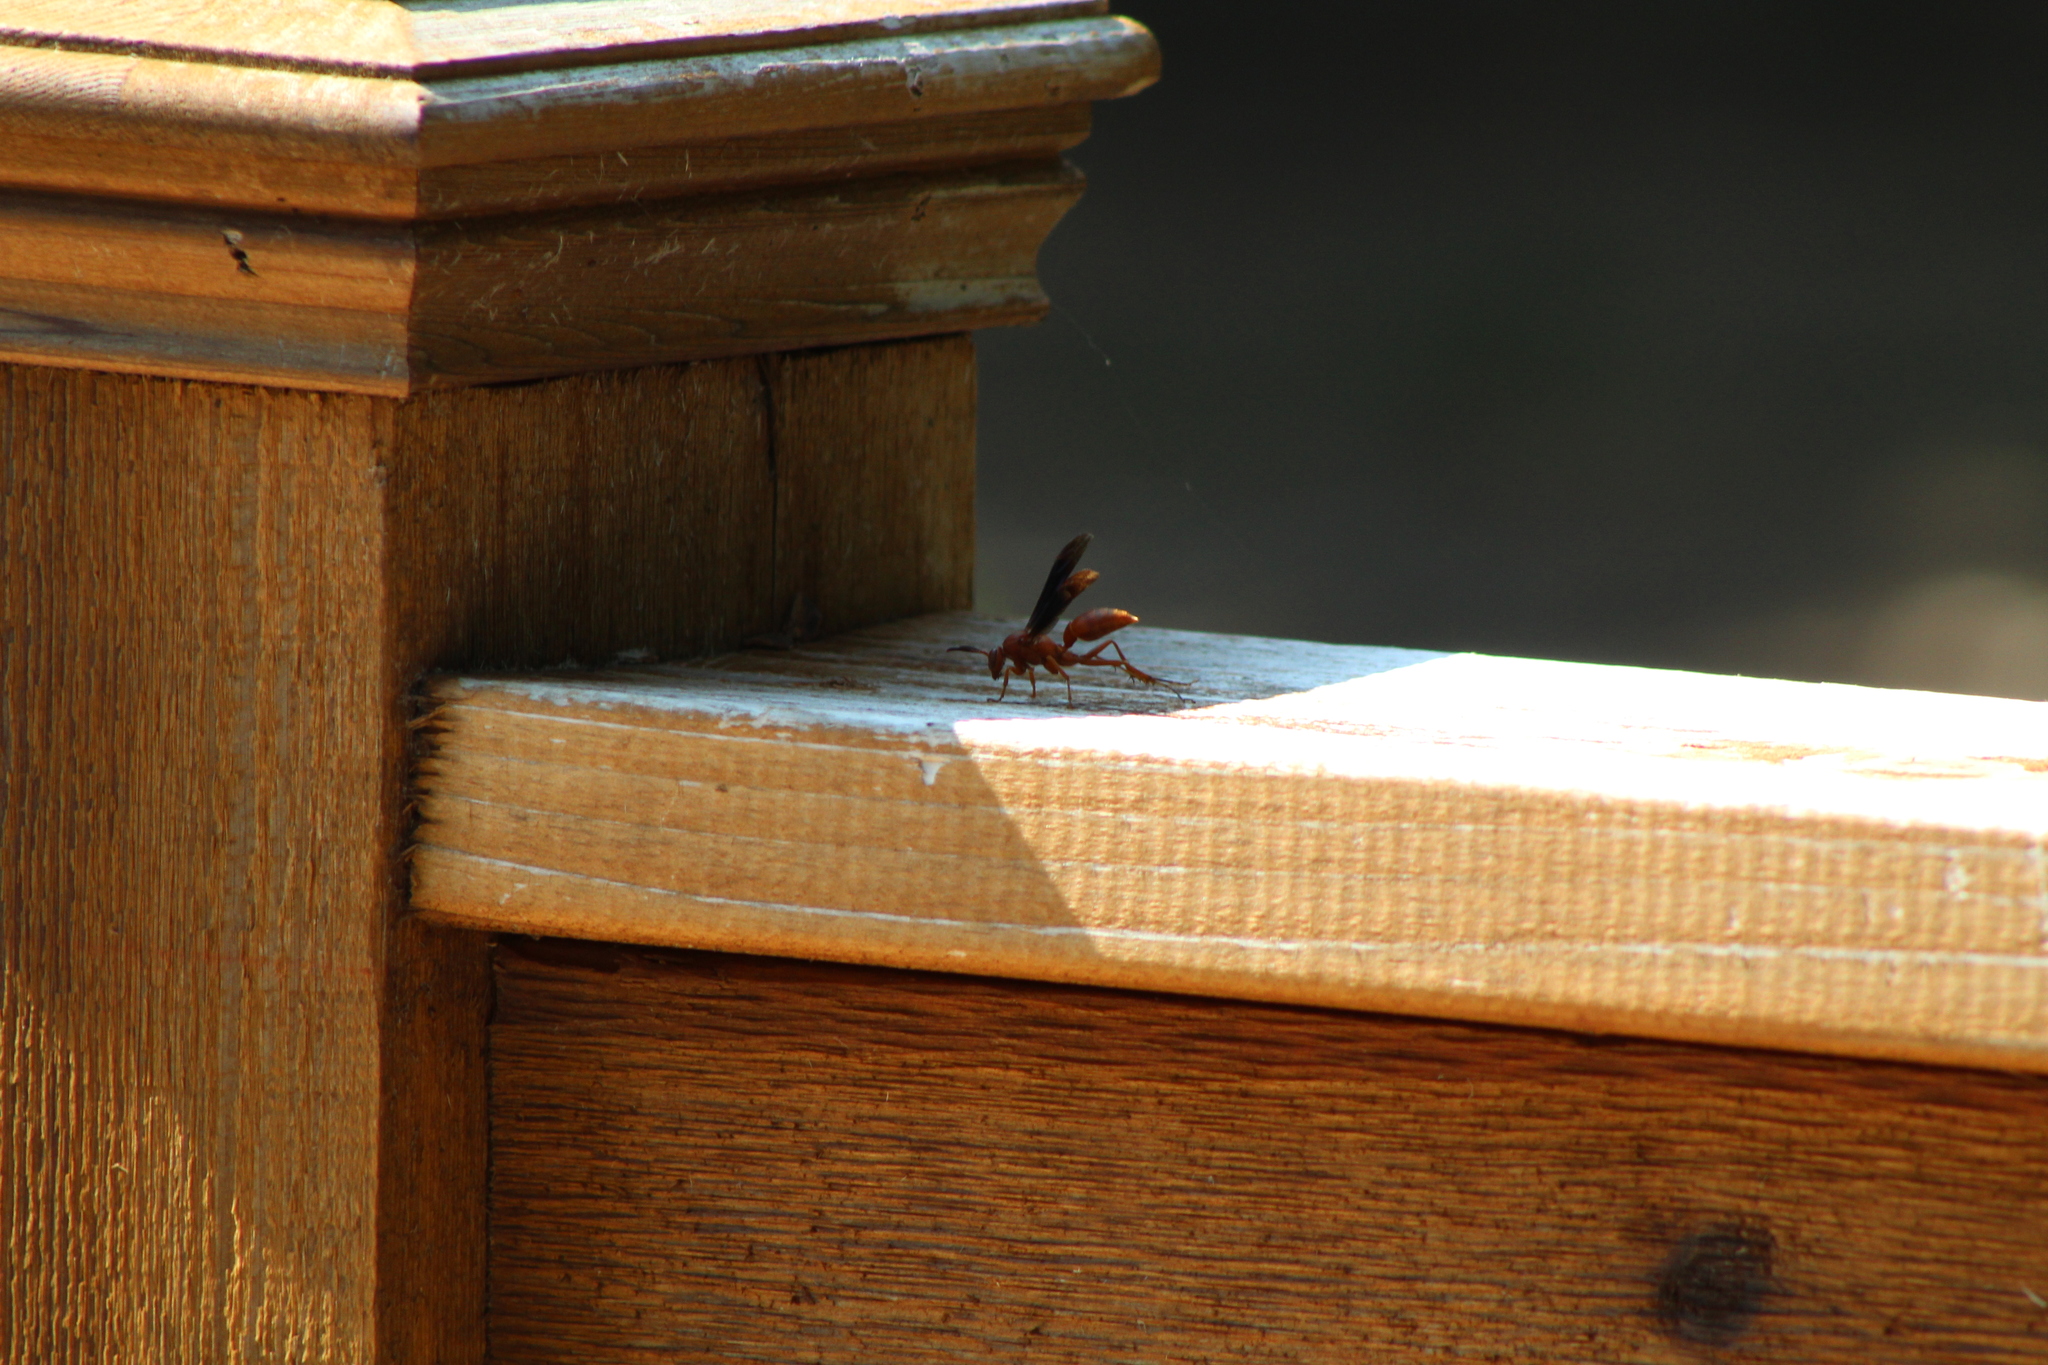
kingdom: Animalia
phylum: Arthropoda
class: Insecta
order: Hymenoptera
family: Vespidae
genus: Fuscopolistes
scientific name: Fuscopolistes
